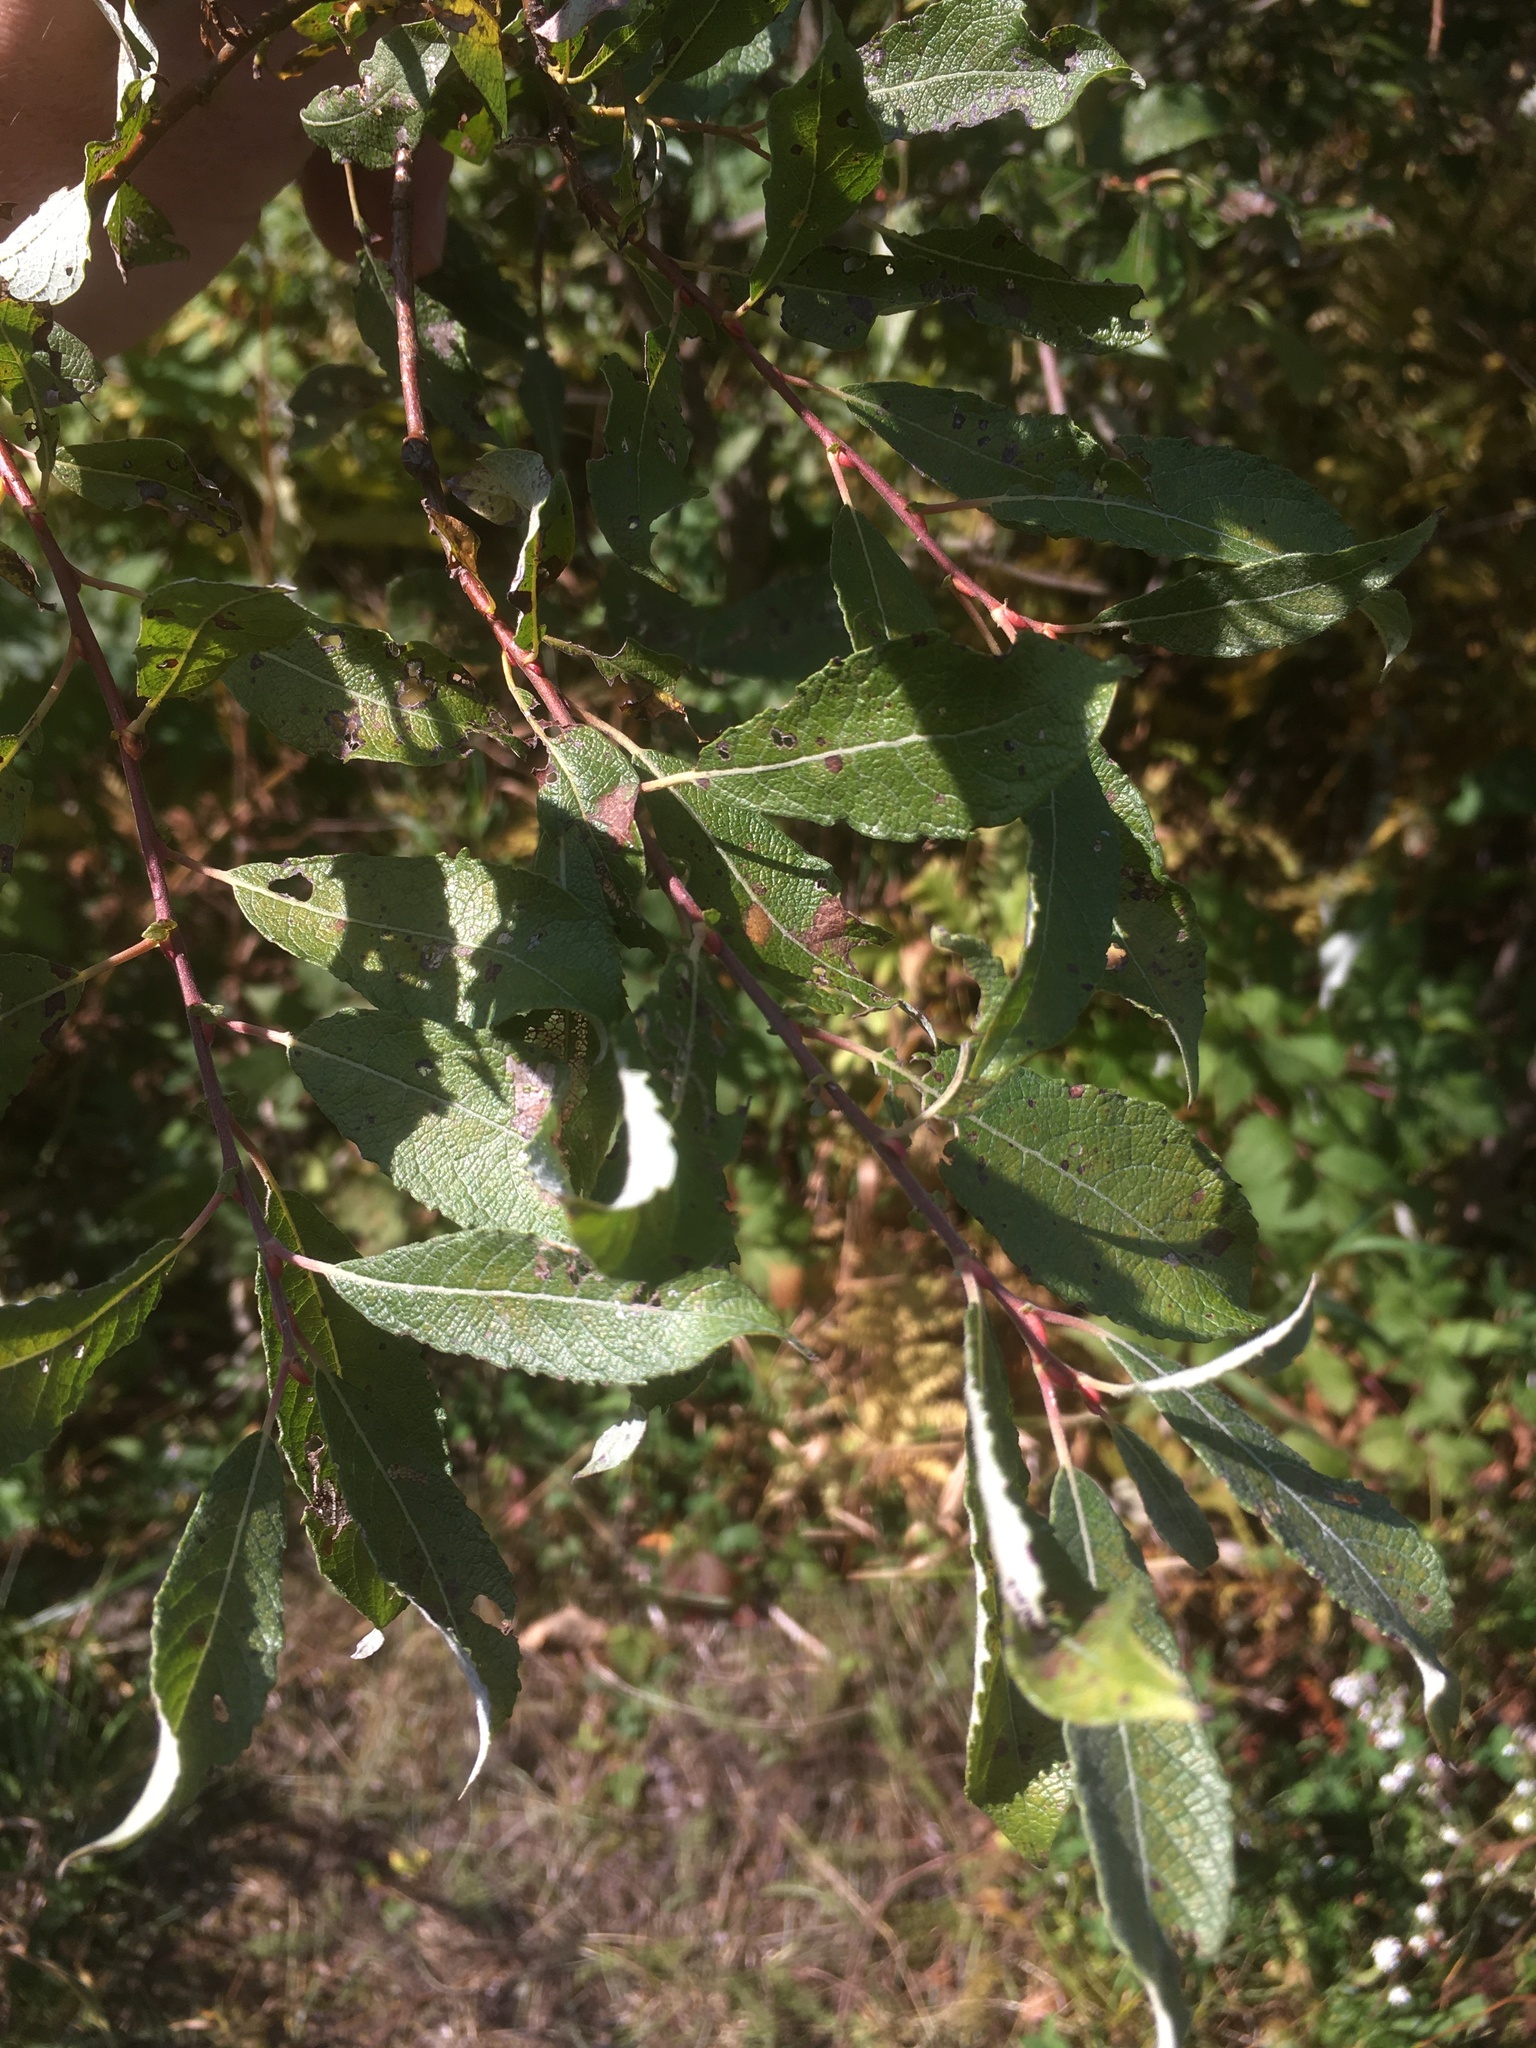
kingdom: Plantae
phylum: Tracheophyta
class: Magnoliopsida
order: Malpighiales
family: Salicaceae
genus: Salix
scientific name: Salix bebbiana
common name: Bebb's willow
